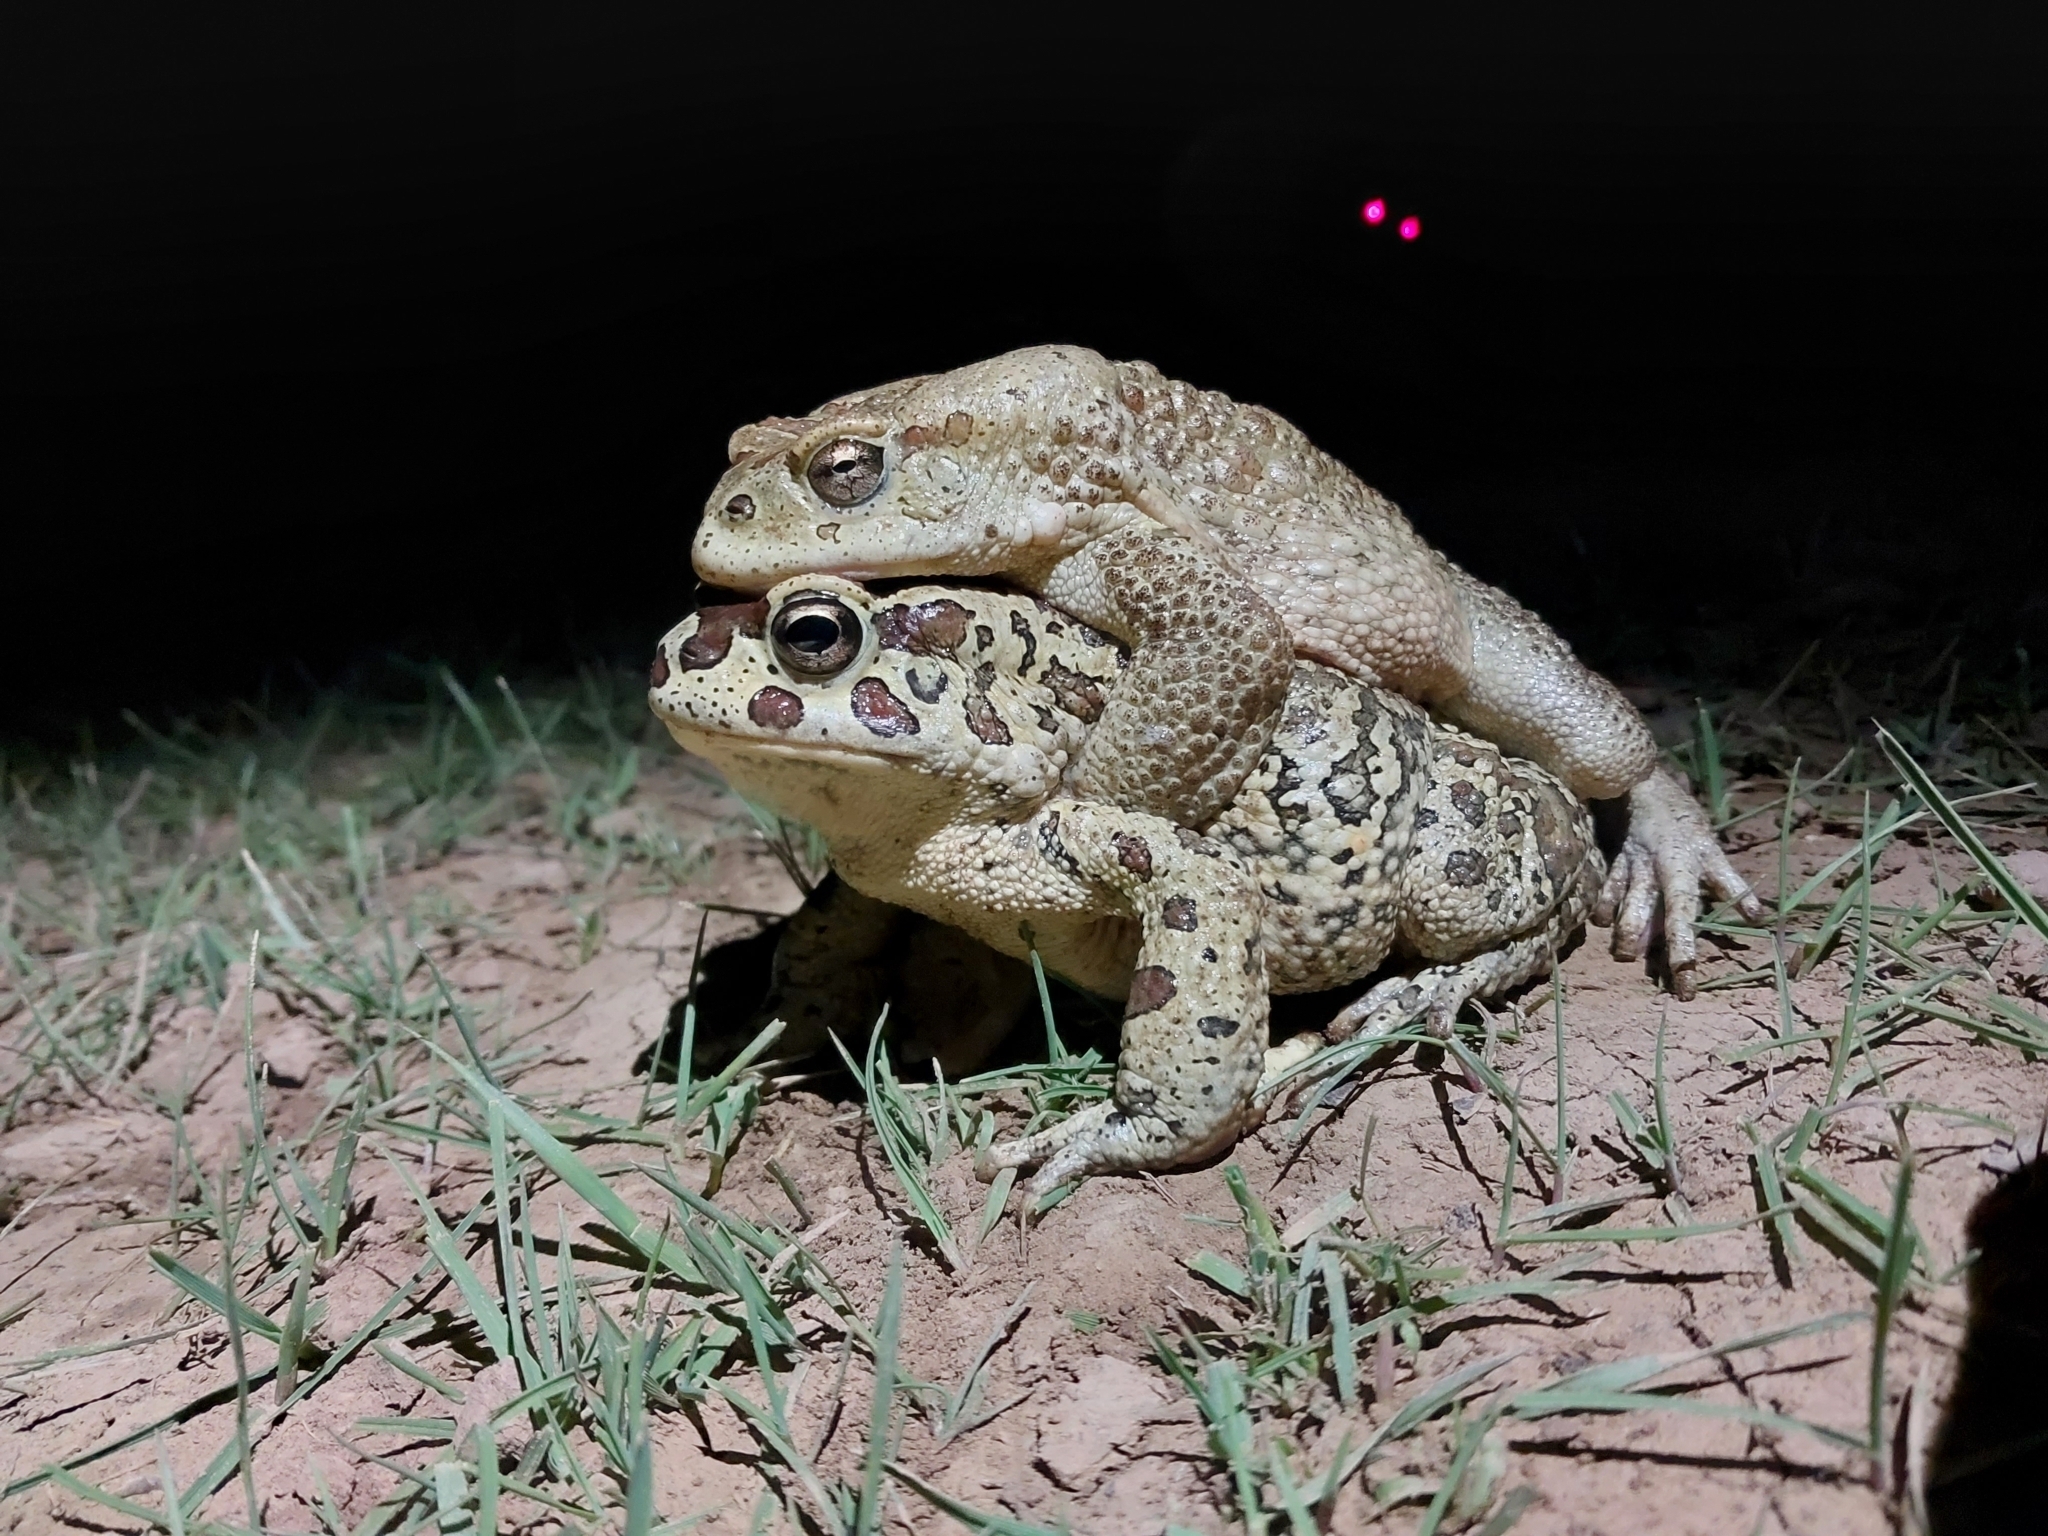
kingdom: Animalia
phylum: Chordata
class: Amphibia
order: Anura
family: Bufonidae
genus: Sclerophrys
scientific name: Sclerophrys mauritanica
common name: Berber toad
